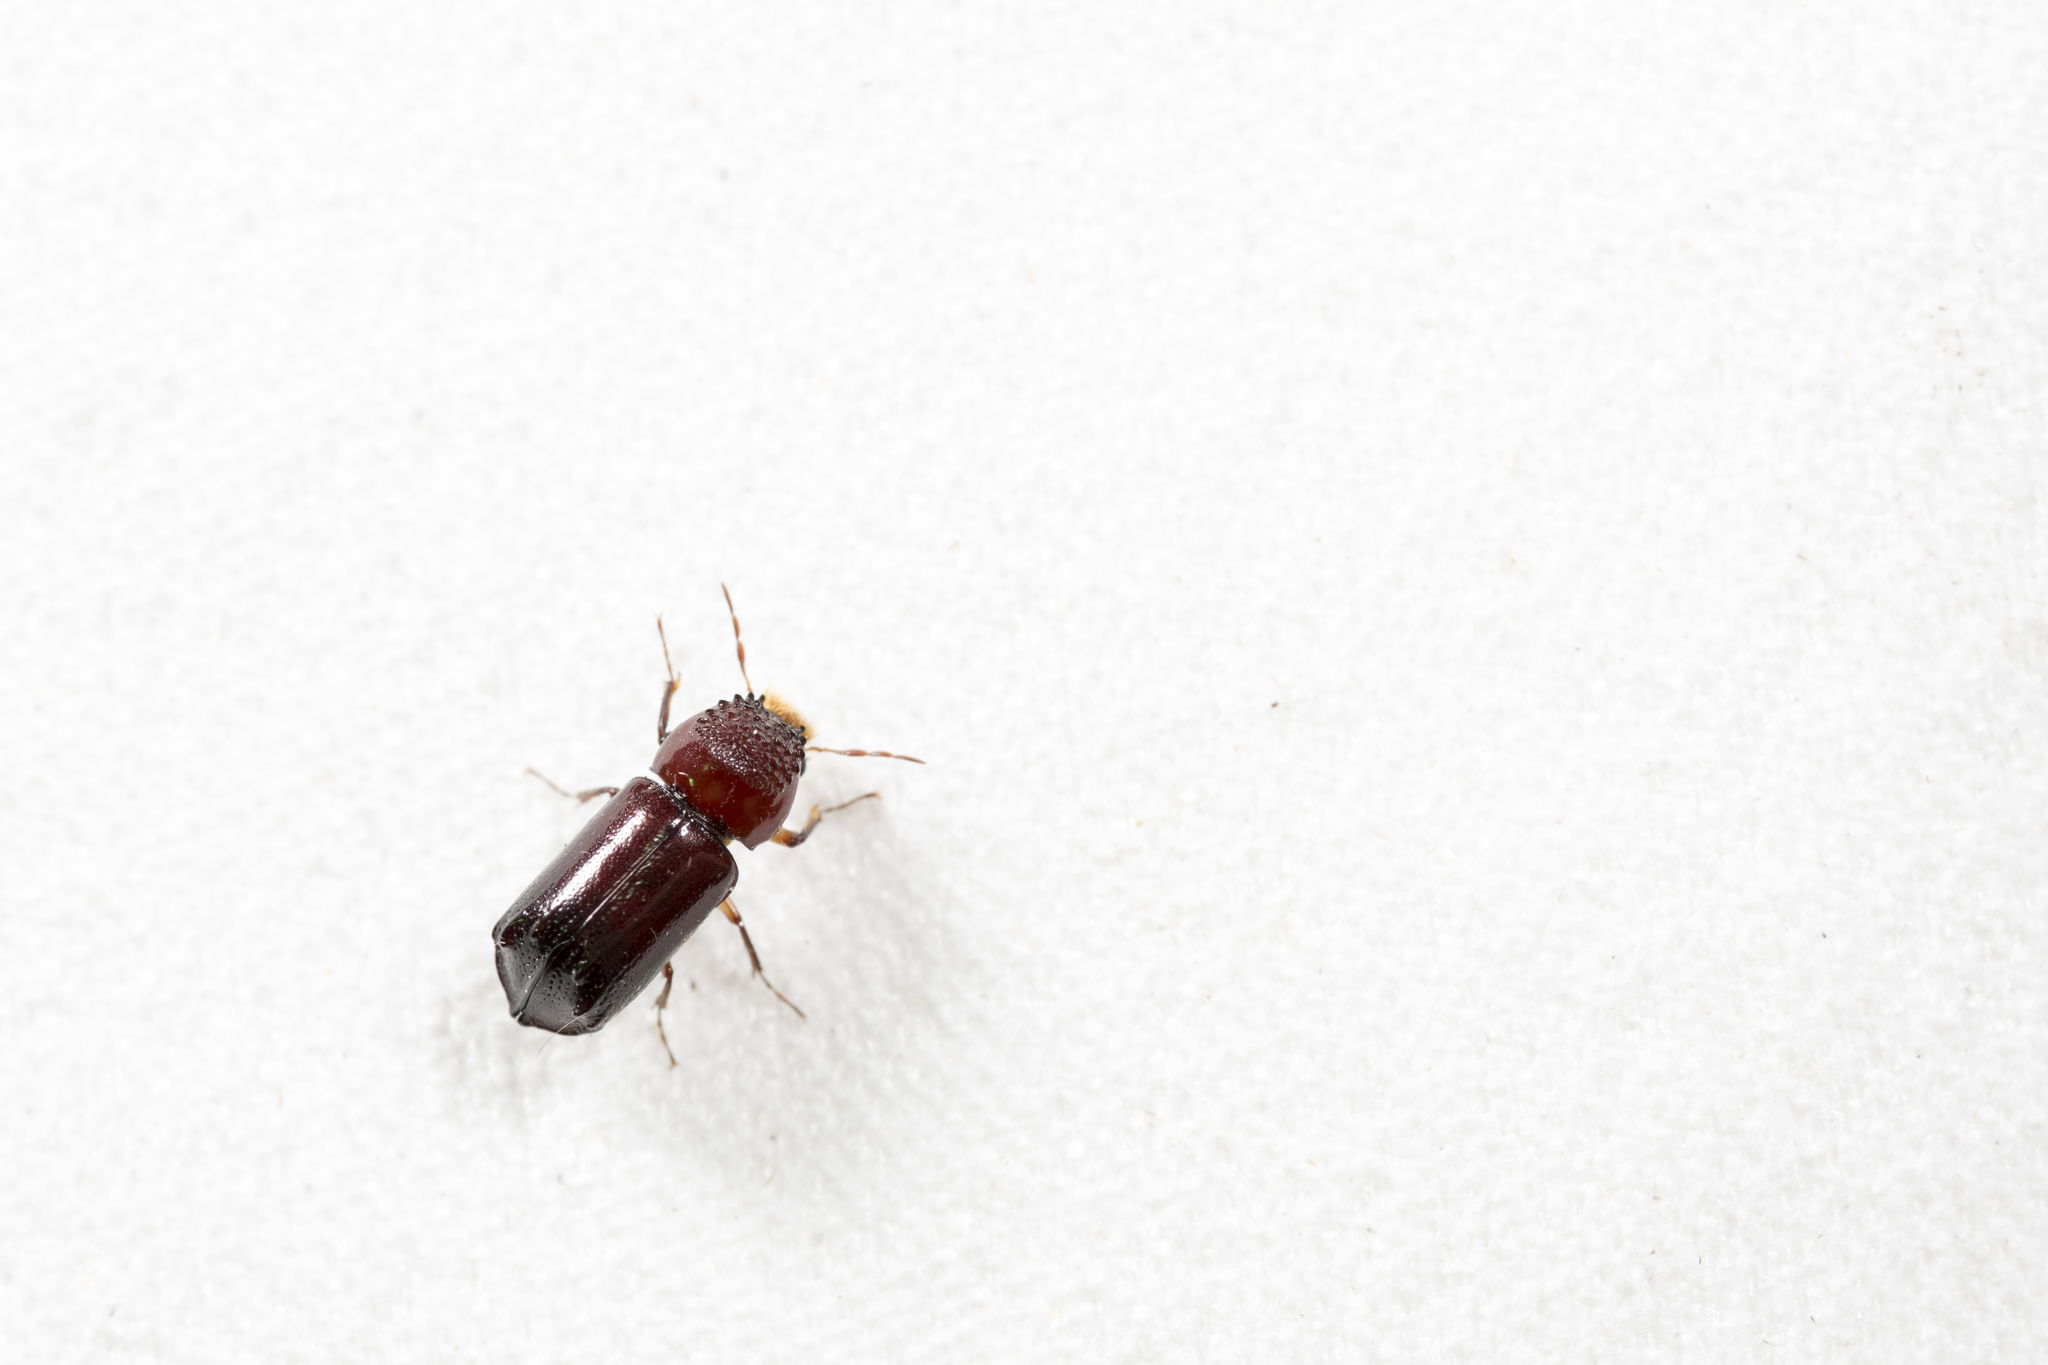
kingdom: Animalia
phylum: Arthropoda
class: Insecta
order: Coleoptera
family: Bostrichidae
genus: Xylothrips
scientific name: Xylothrips flavipes
